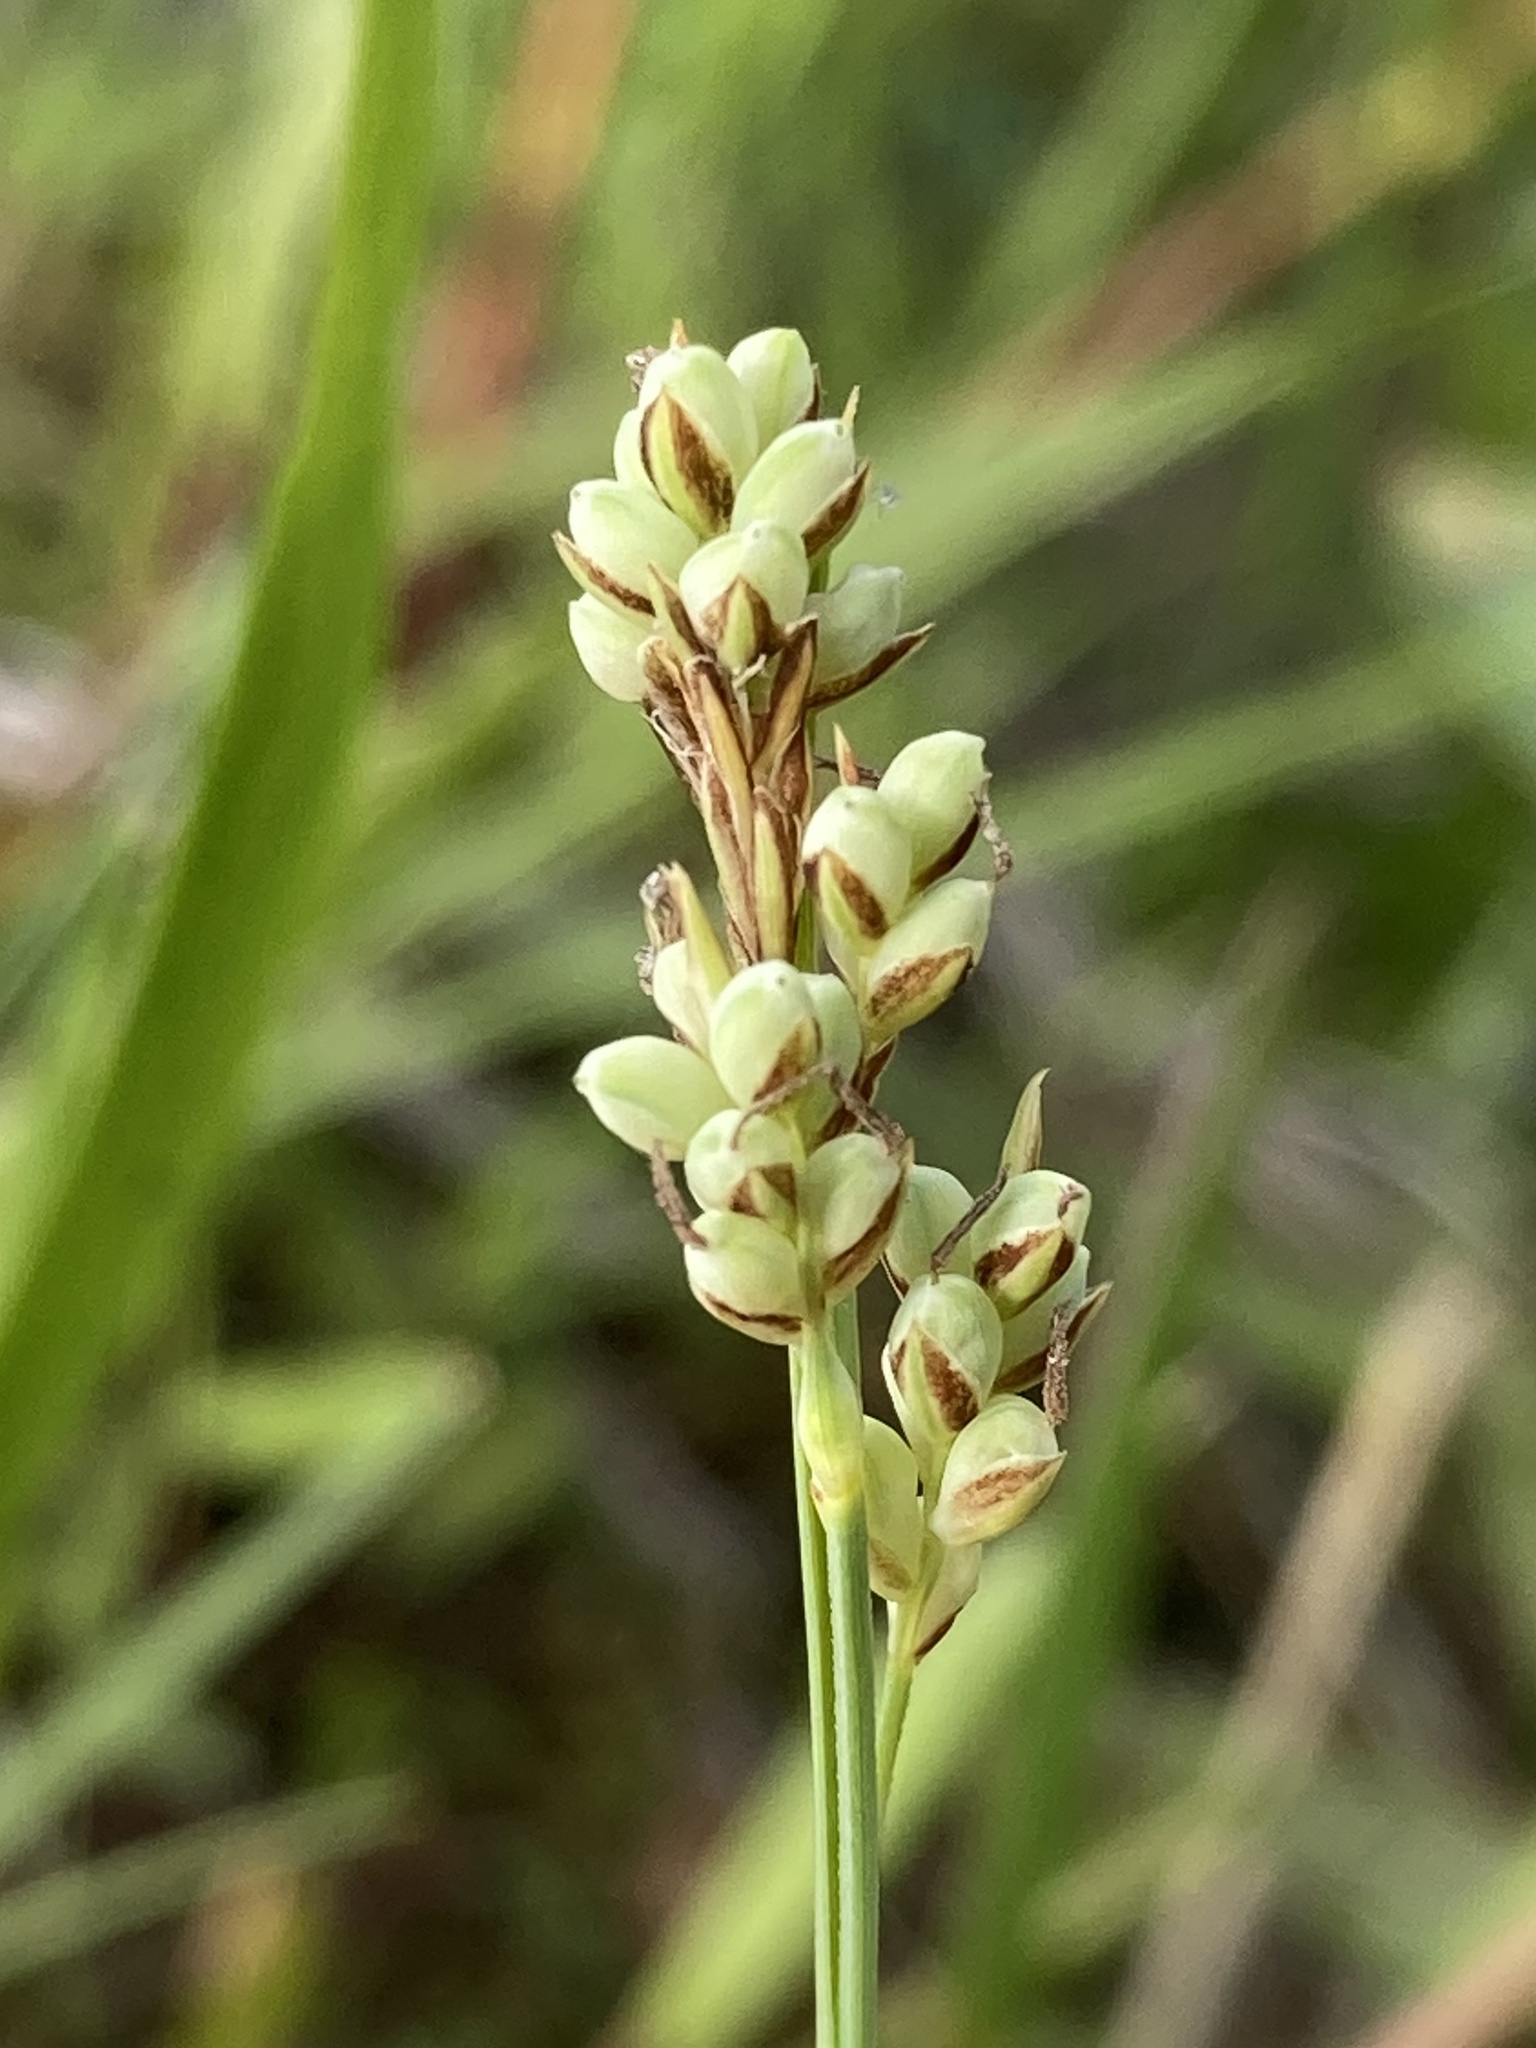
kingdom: Plantae
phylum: Tracheophyta
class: Liliopsida
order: Poales
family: Cyperaceae
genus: Carex
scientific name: Carex garberi
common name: Elk sedge
